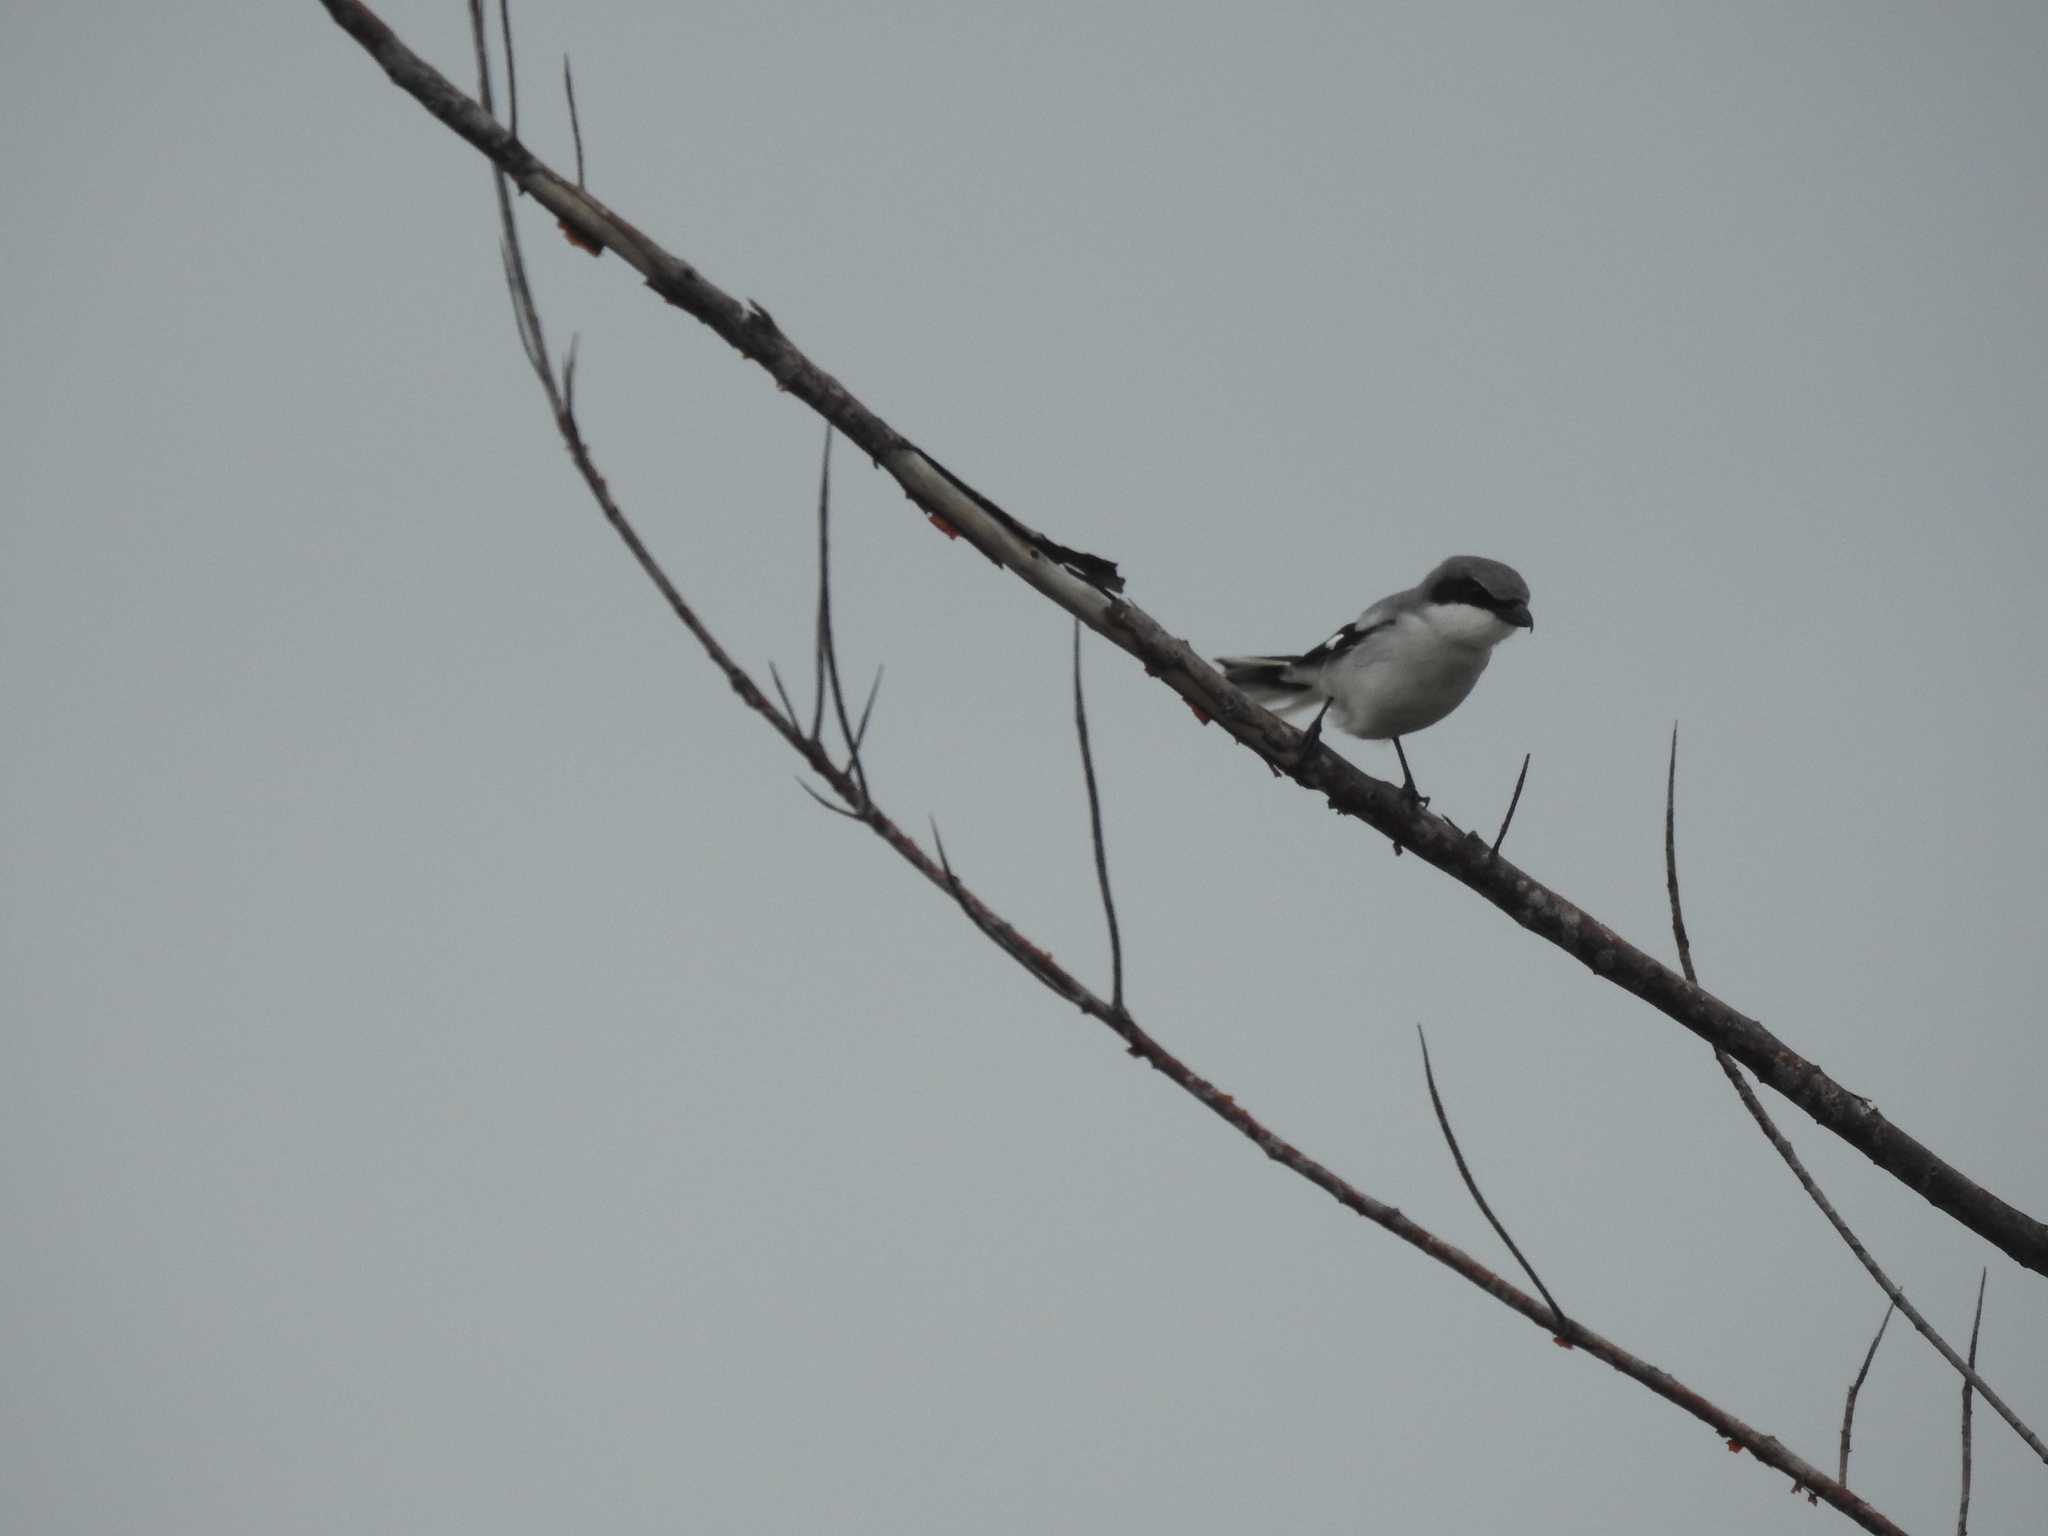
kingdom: Animalia
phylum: Chordata
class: Aves
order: Passeriformes
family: Laniidae
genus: Lanius
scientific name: Lanius ludovicianus
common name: Loggerhead shrike
